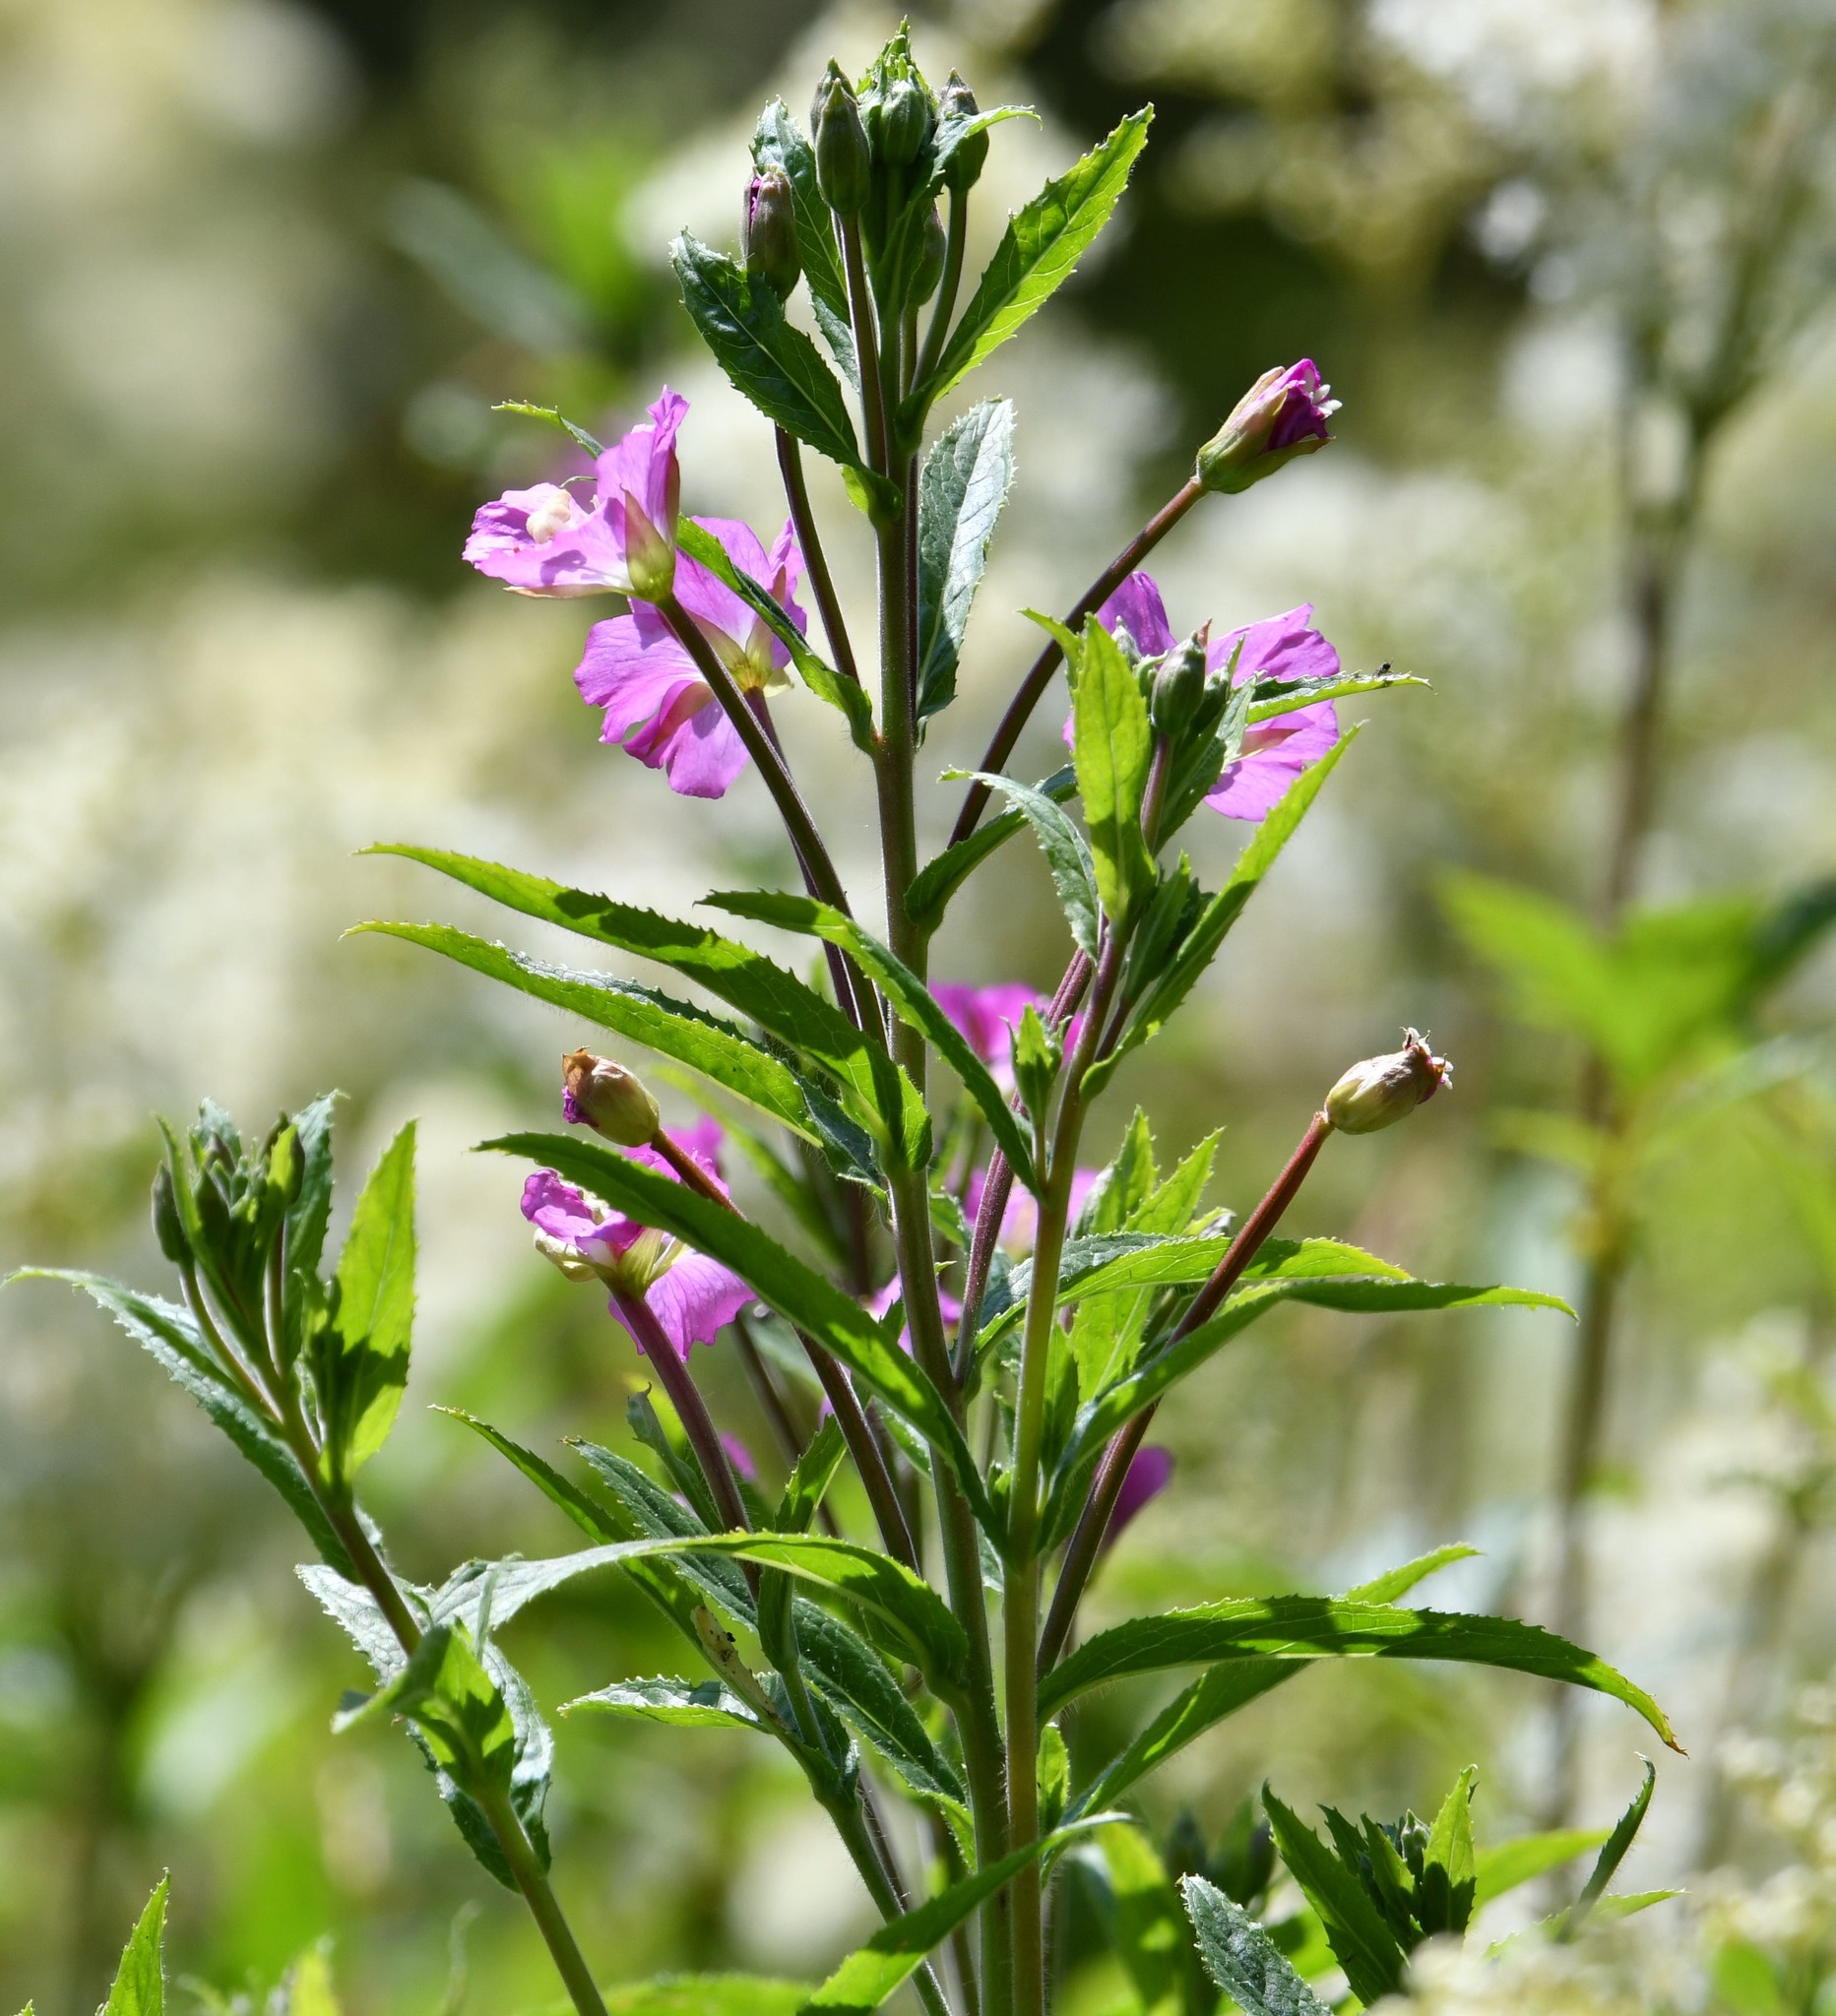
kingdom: Plantae
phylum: Tracheophyta
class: Magnoliopsida
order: Myrtales
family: Onagraceae
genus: Epilobium
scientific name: Epilobium hirsutum
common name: Great willowherb
